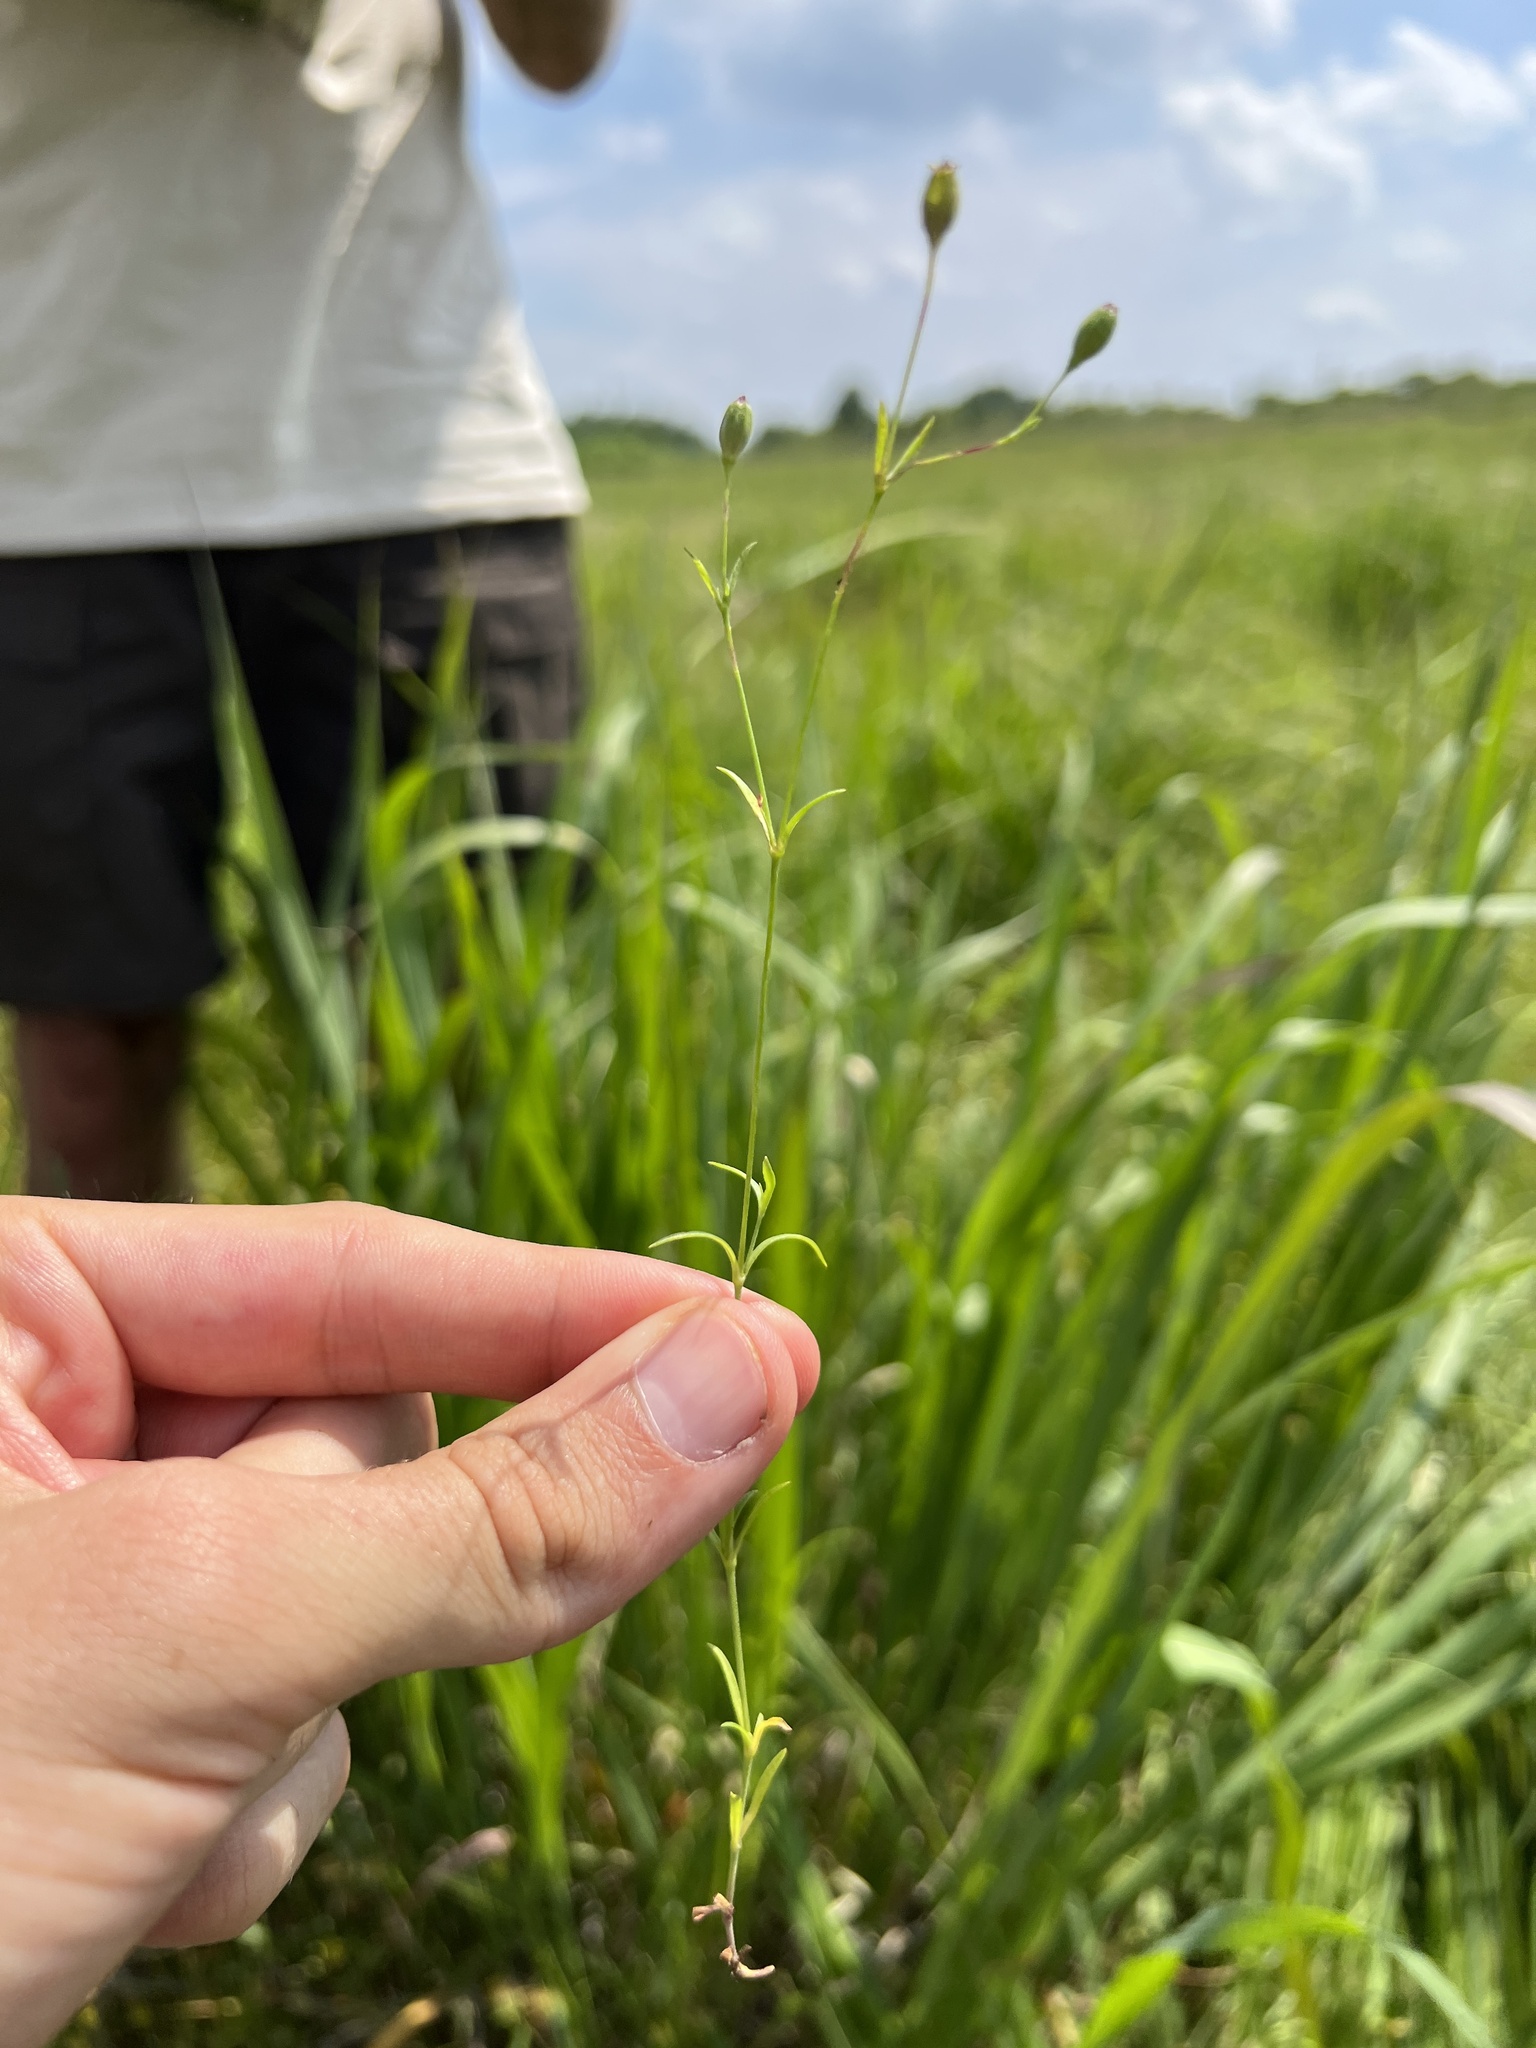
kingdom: Plantae
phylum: Tracheophyta
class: Magnoliopsida
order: Caryophyllales
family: Caryophyllaceae
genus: Silene
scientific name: Silene antirrhina
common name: Sleepy catchfly
